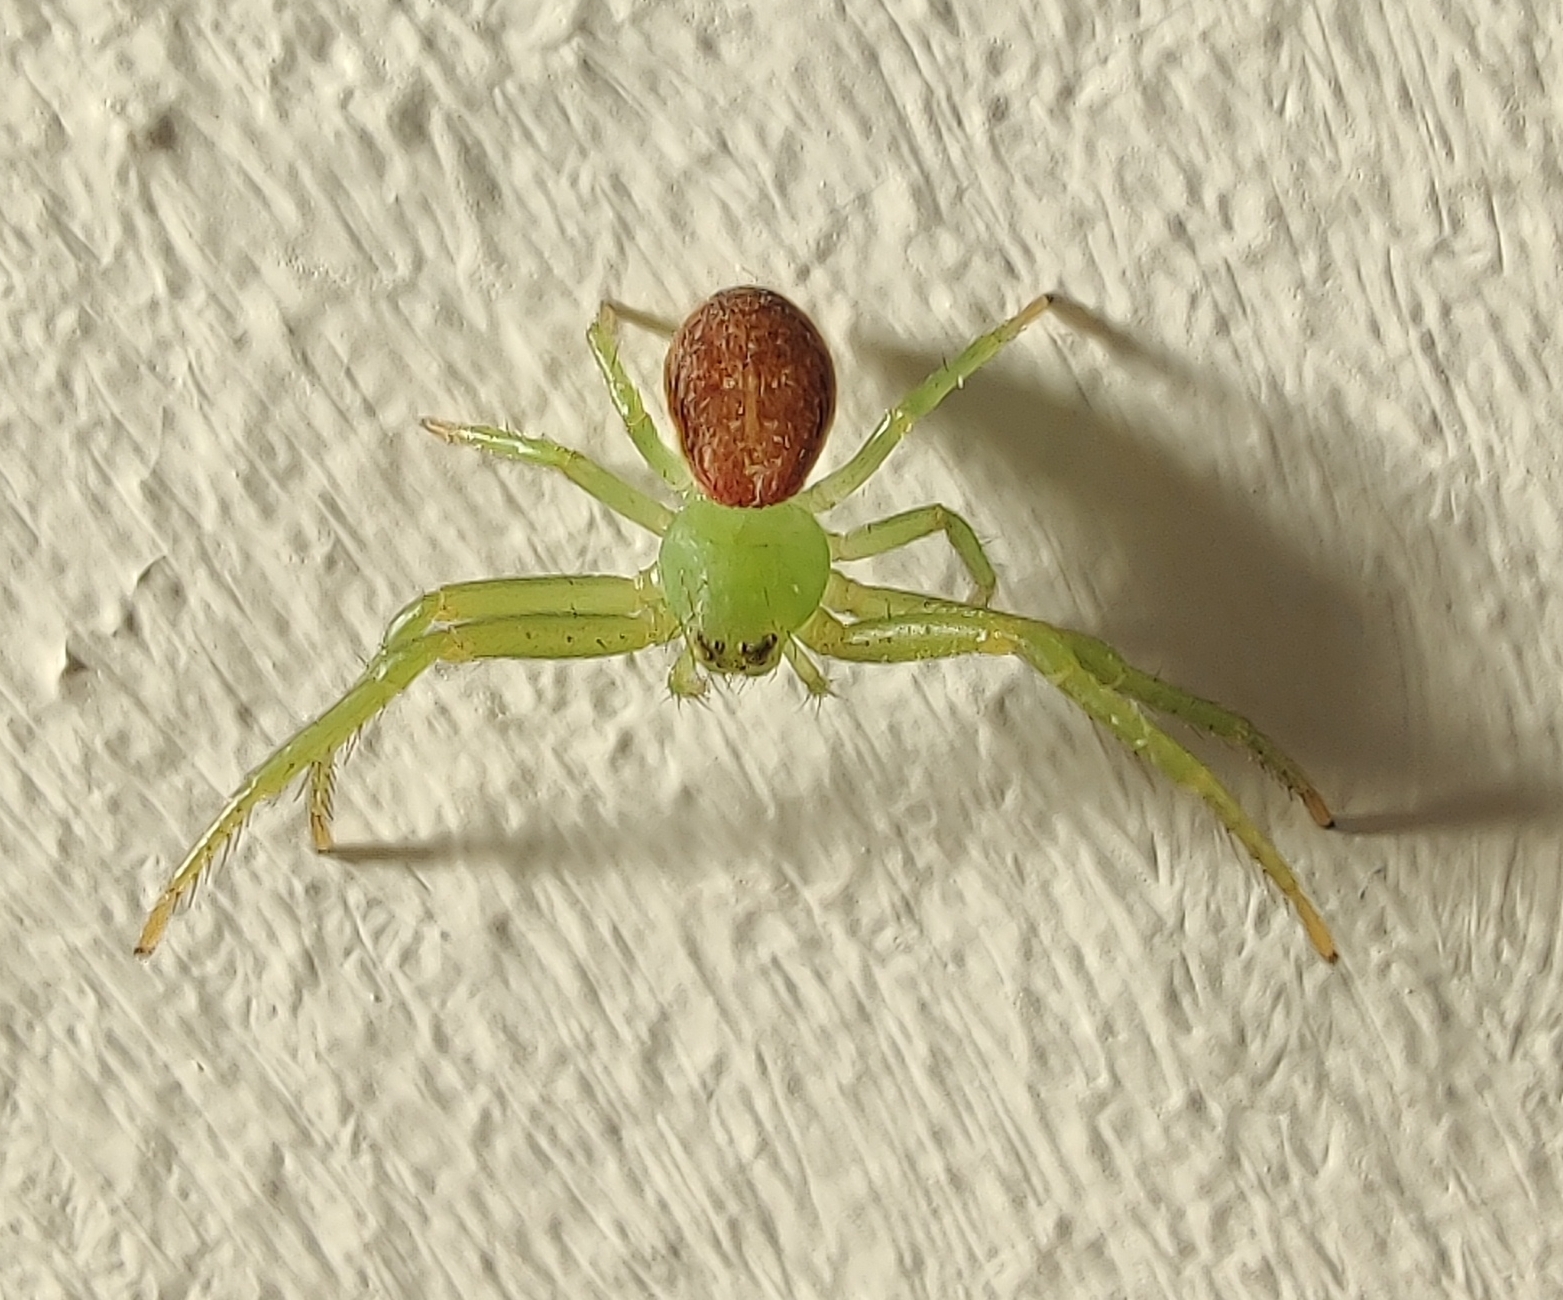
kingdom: Animalia
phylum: Arthropoda
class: Arachnida
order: Araneae
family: Thomisidae
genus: Diaea
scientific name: Diaea dorsata
